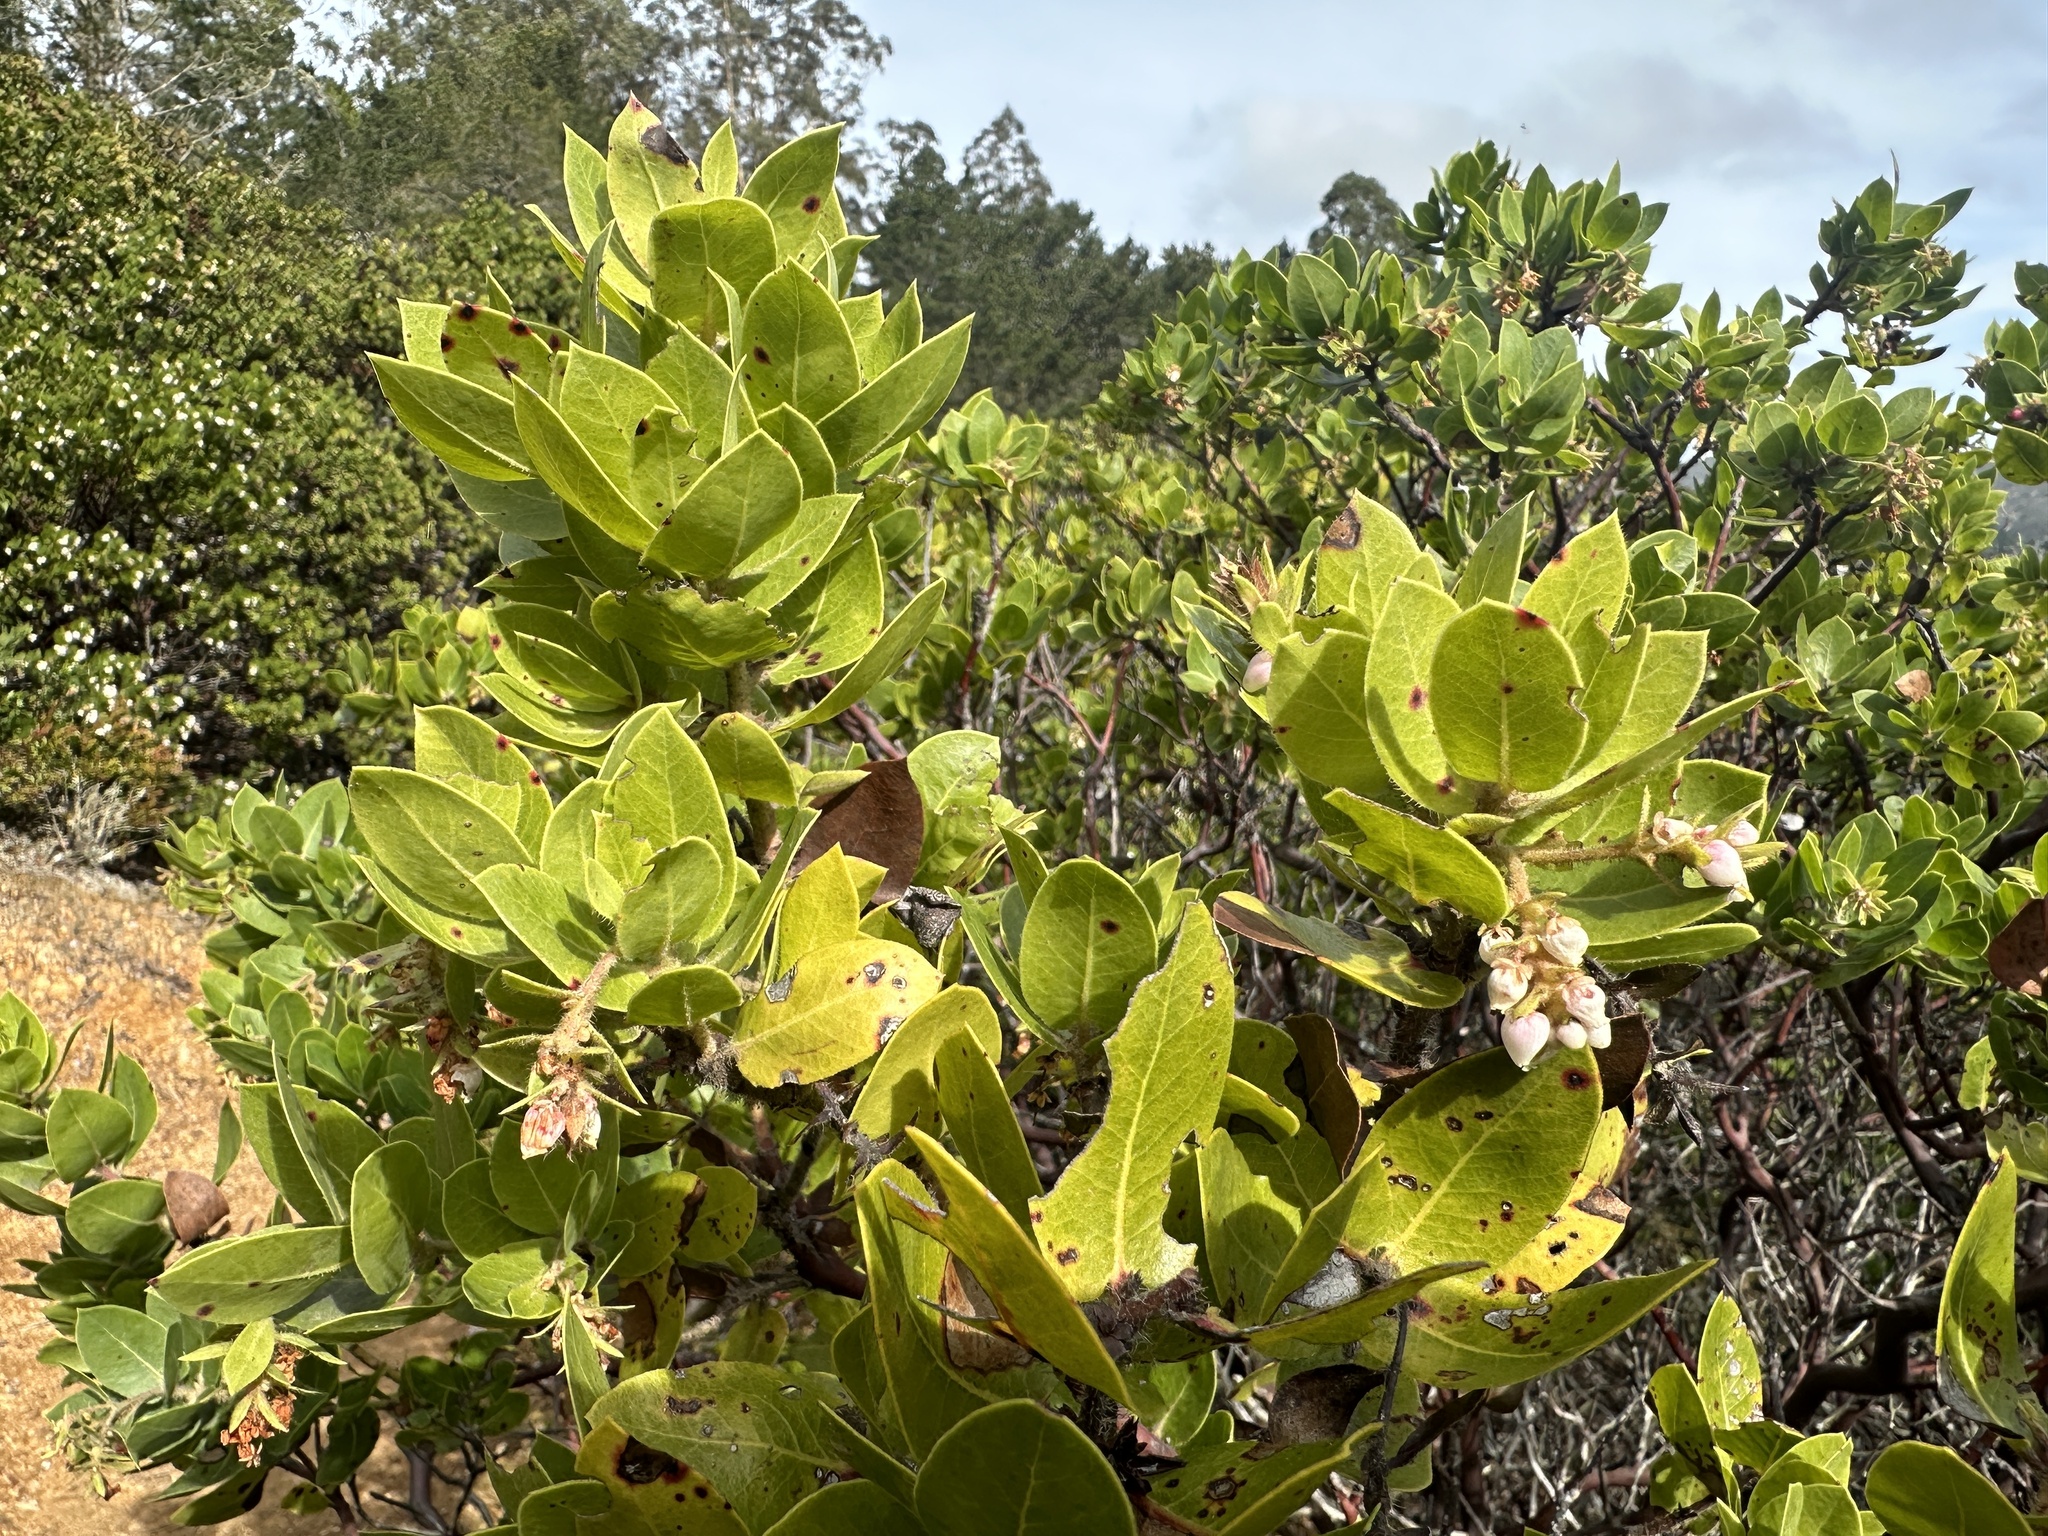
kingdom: Plantae
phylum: Tracheophyta
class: Magnoliopsida
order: Ericales
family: Ericaceae
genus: Arctostaphylos
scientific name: Arctostaphylos montaraensis
